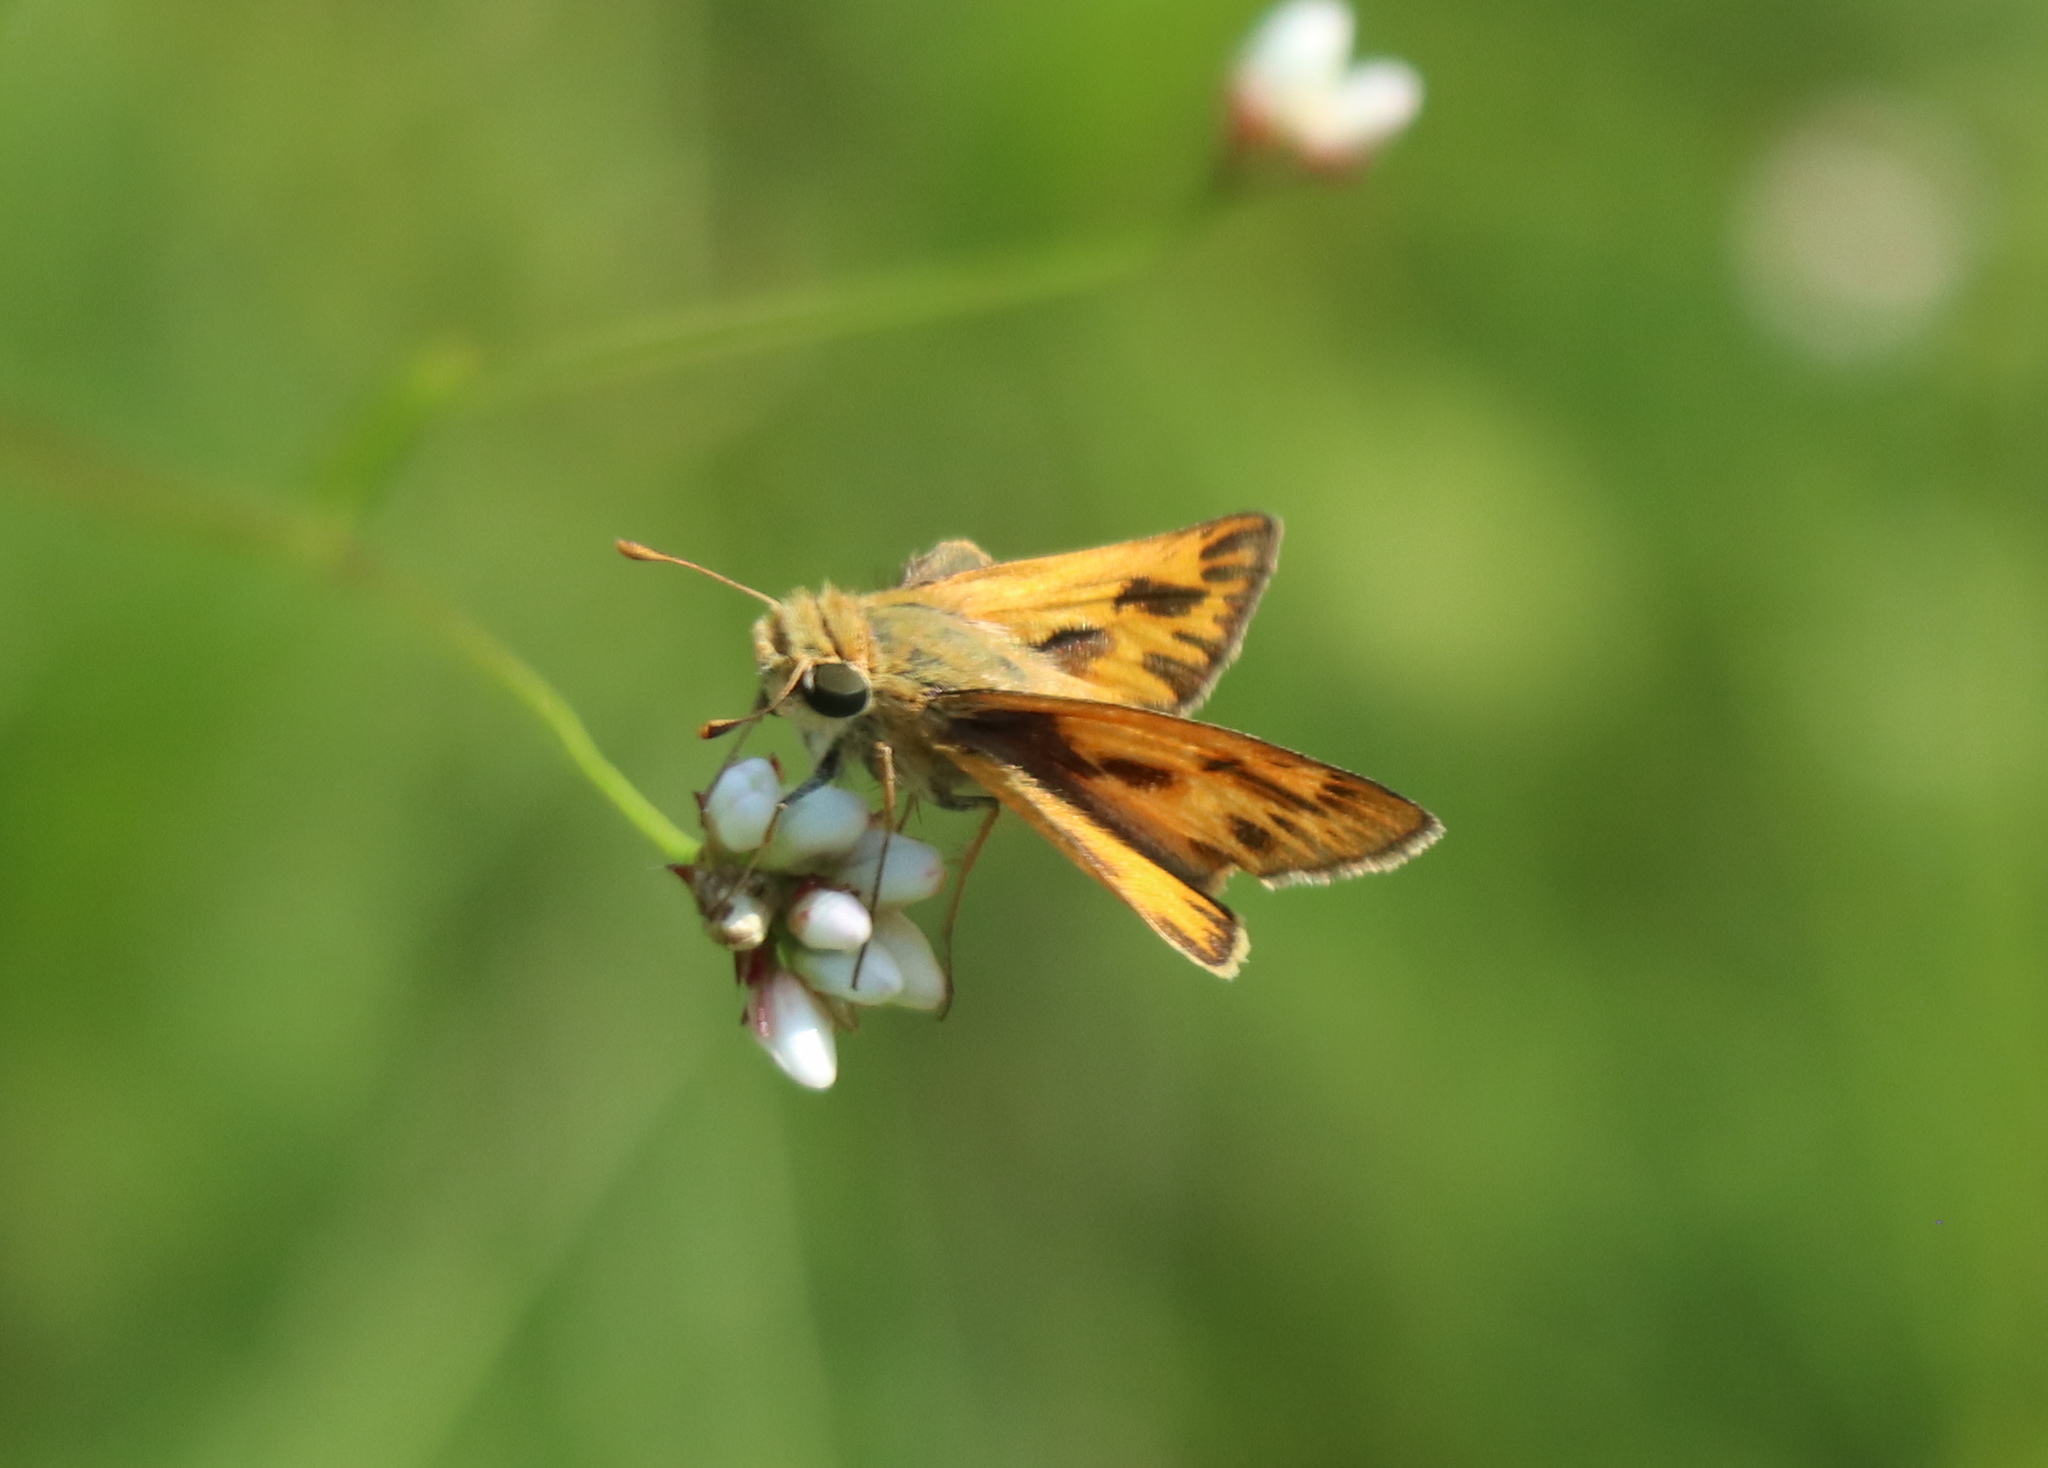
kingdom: Animalia
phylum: Arthropoda
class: Insecta
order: Lepidoptera
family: Hesperiidae
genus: Hylephila
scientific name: Hylephila phyleus
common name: Fiery skipper
